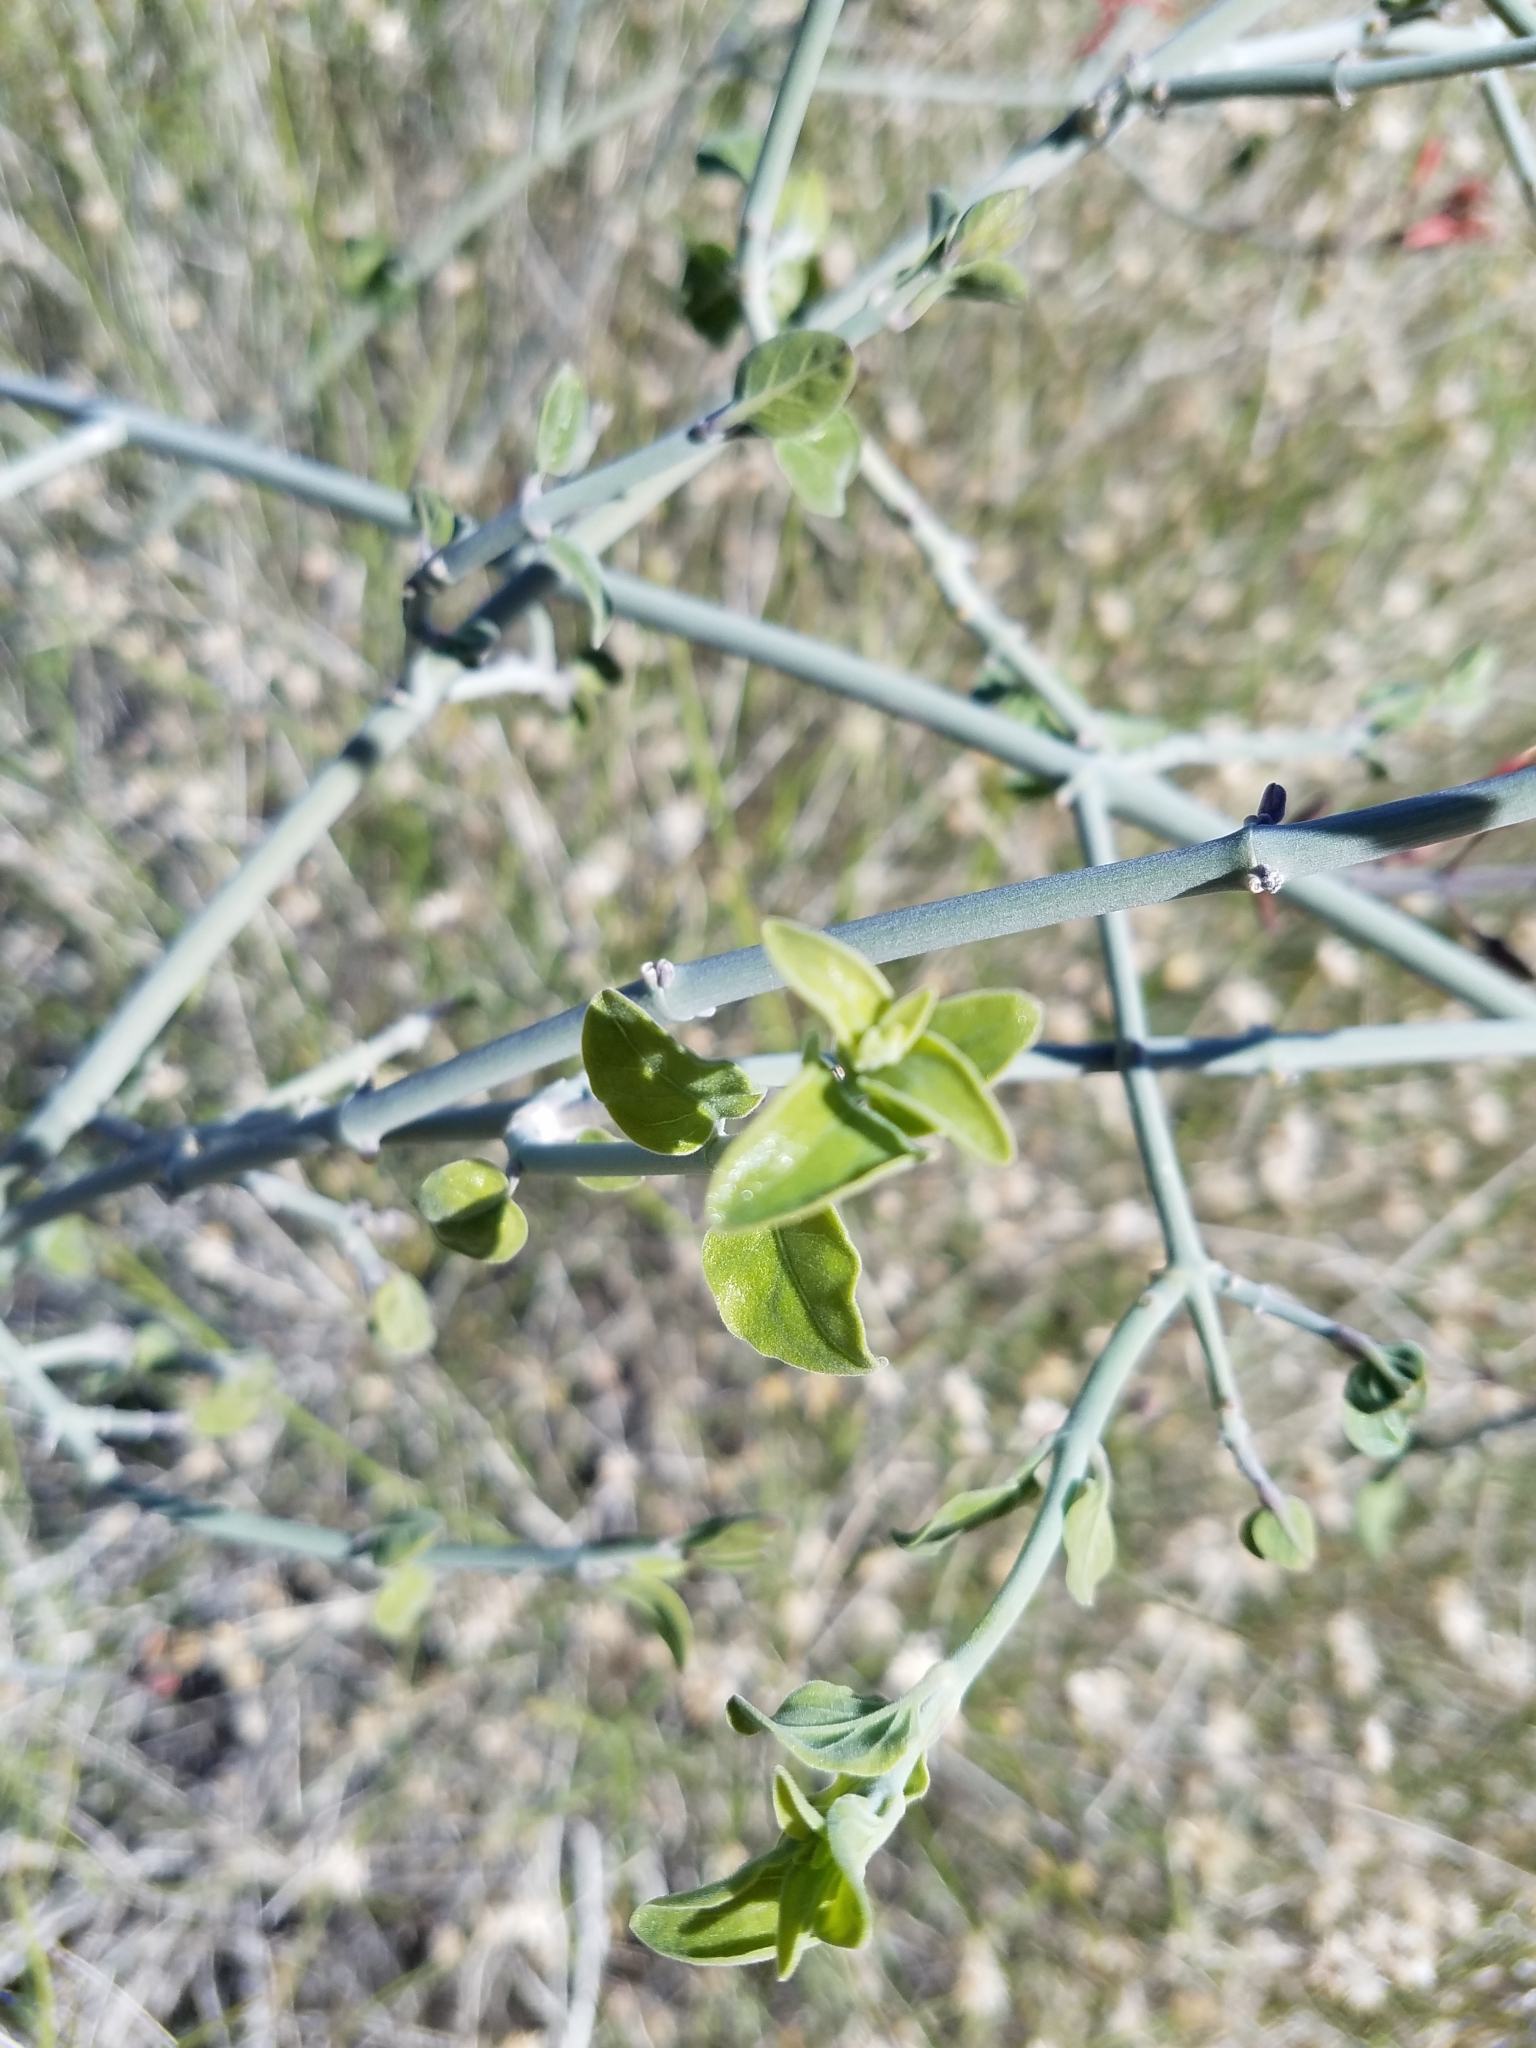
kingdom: Plantae
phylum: Tracheophyta
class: Magnoliopsida
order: Lamiales
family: Acanthaceae
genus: Justicia
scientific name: Justicia californica
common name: Chuparosa-honeysuckle
